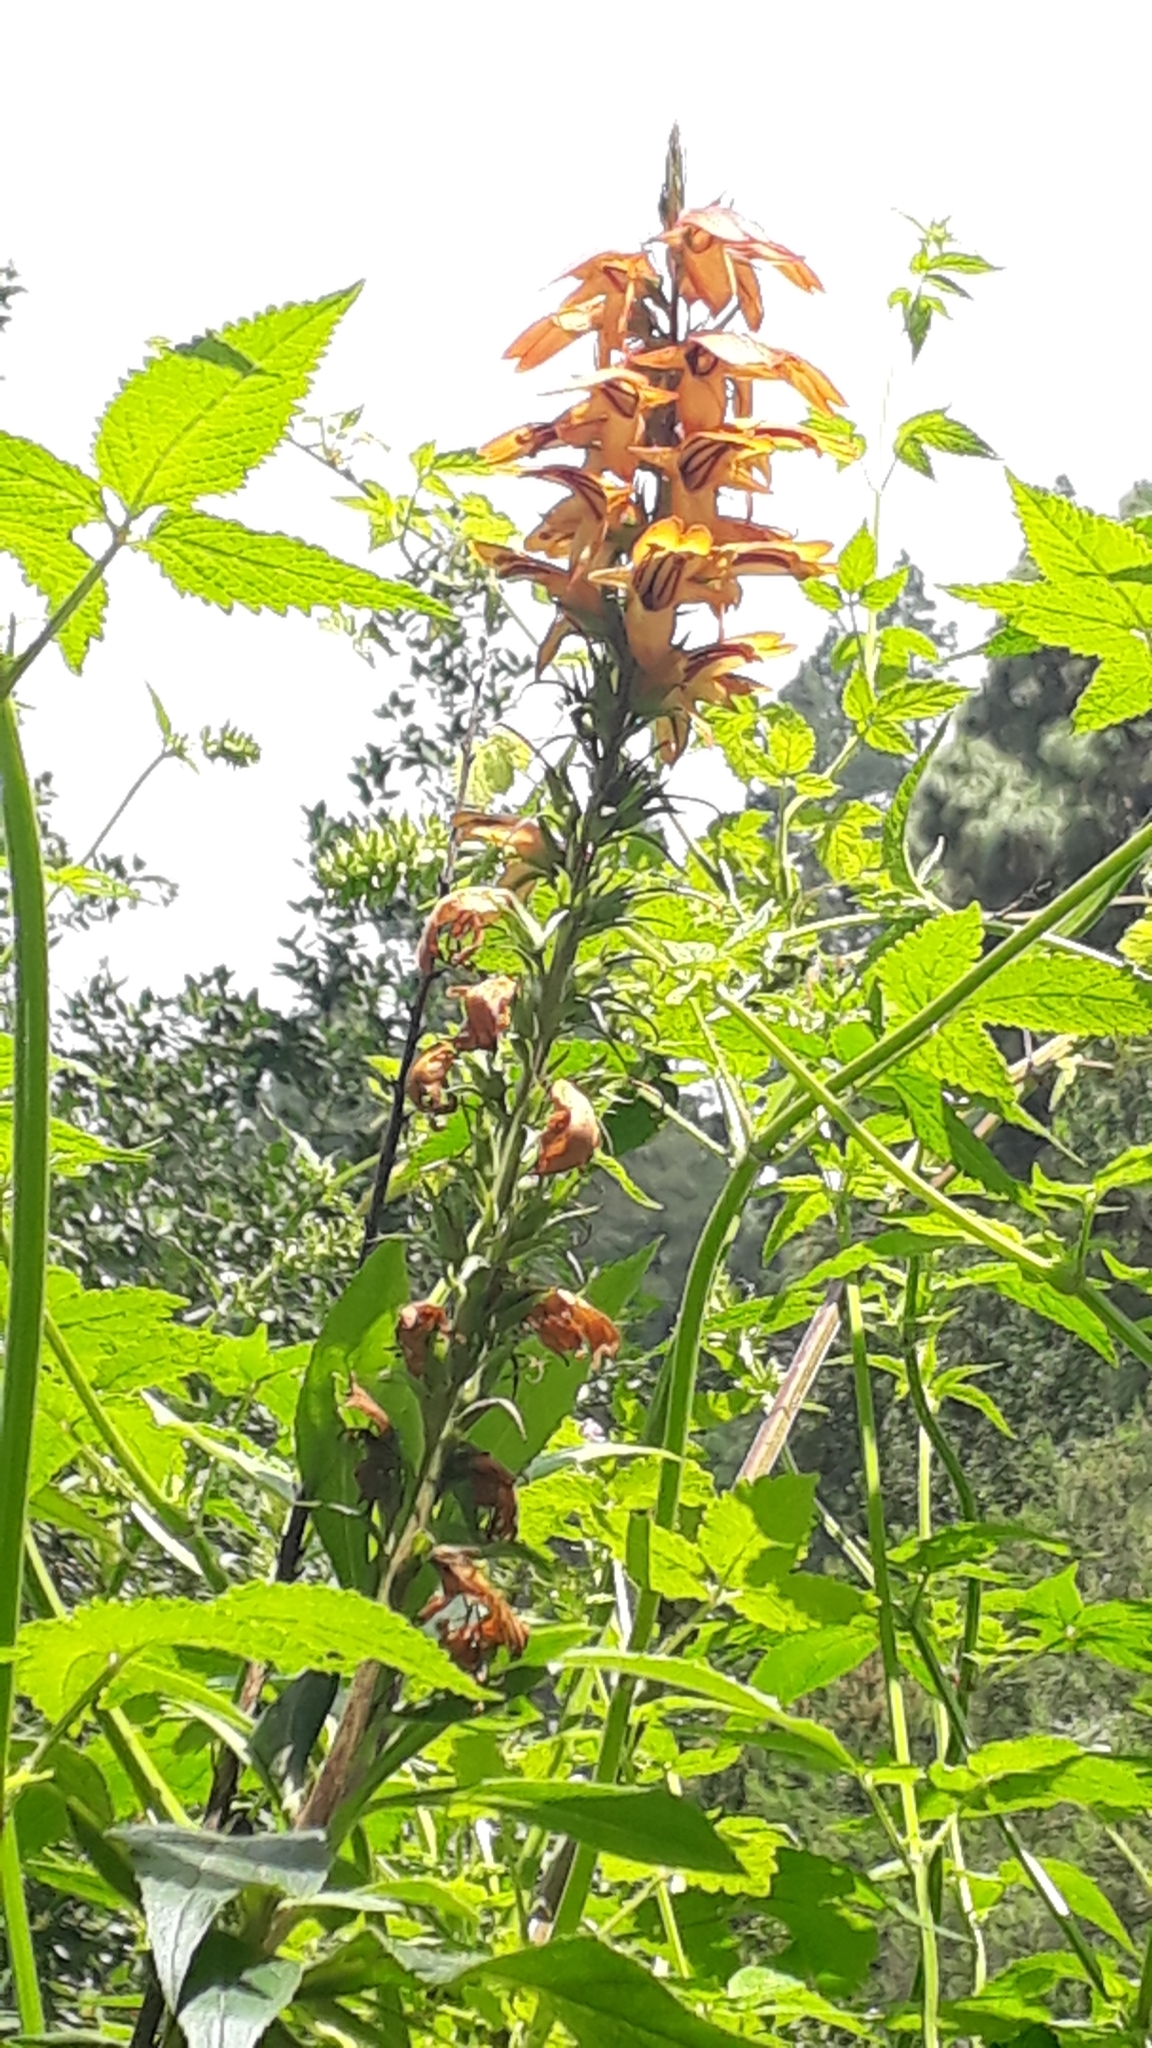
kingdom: Plantae
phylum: Tracheophyta
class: Magnoliopsida
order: Lamiales
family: Plantaginaceae
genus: Digitalis
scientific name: Digitalis canariensis
